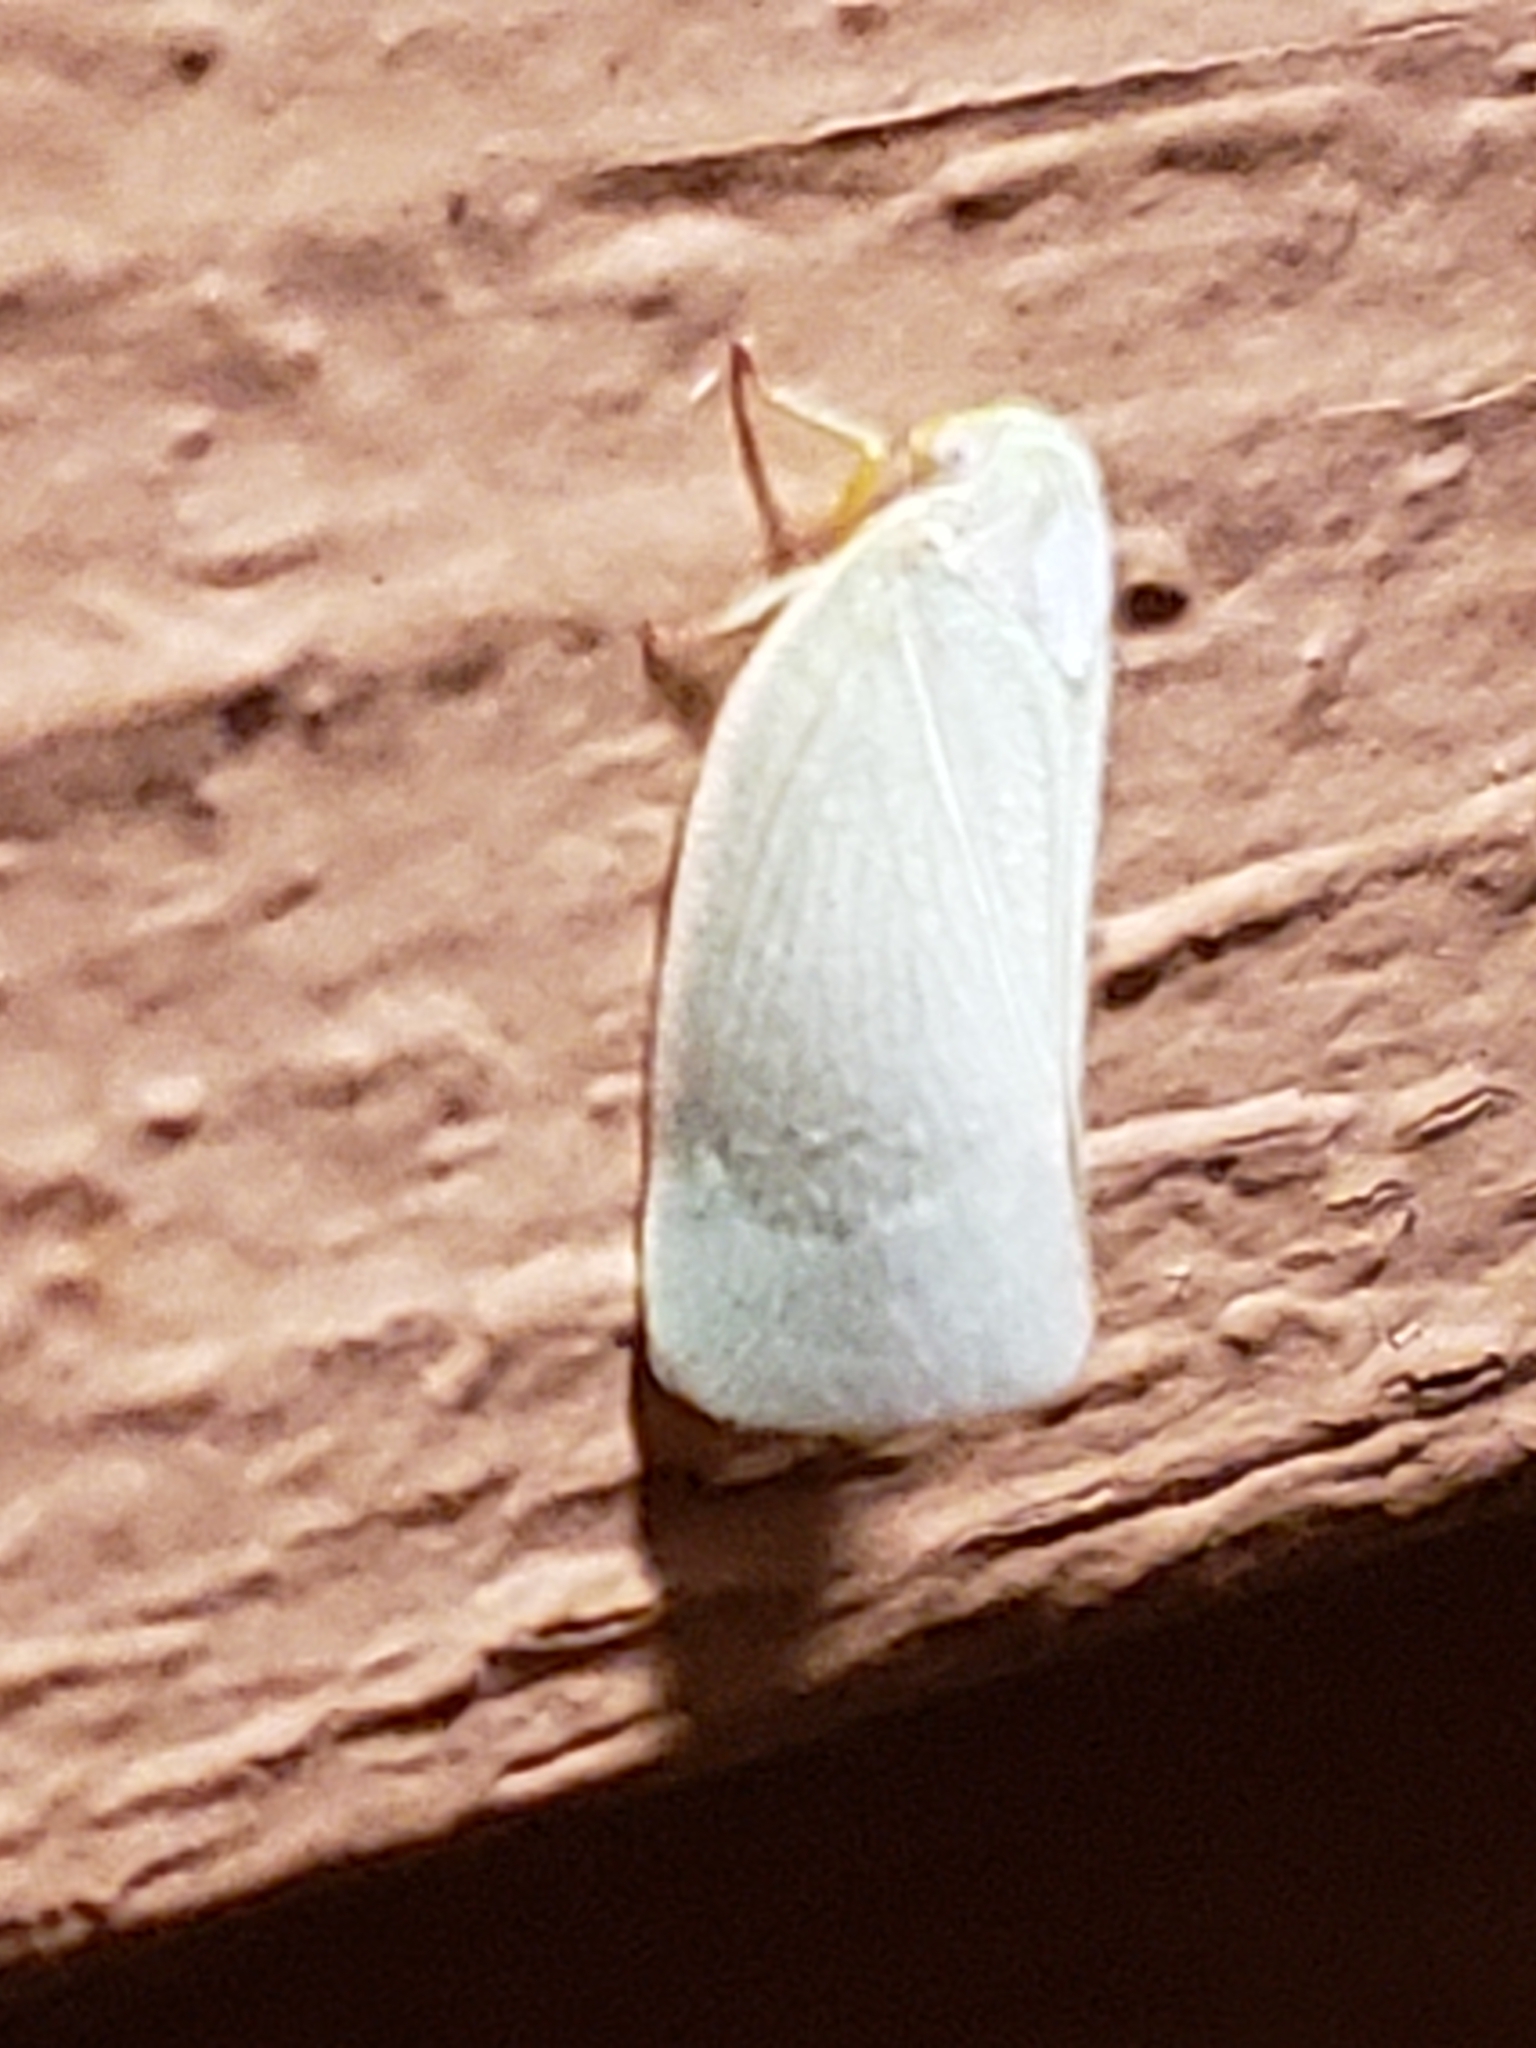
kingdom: Animalia
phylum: Arthropoda
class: Insecta
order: Hemiptera
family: Flatidae
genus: Flatormenis
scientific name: Flatormenis proxima
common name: Northern flatid planthopper
